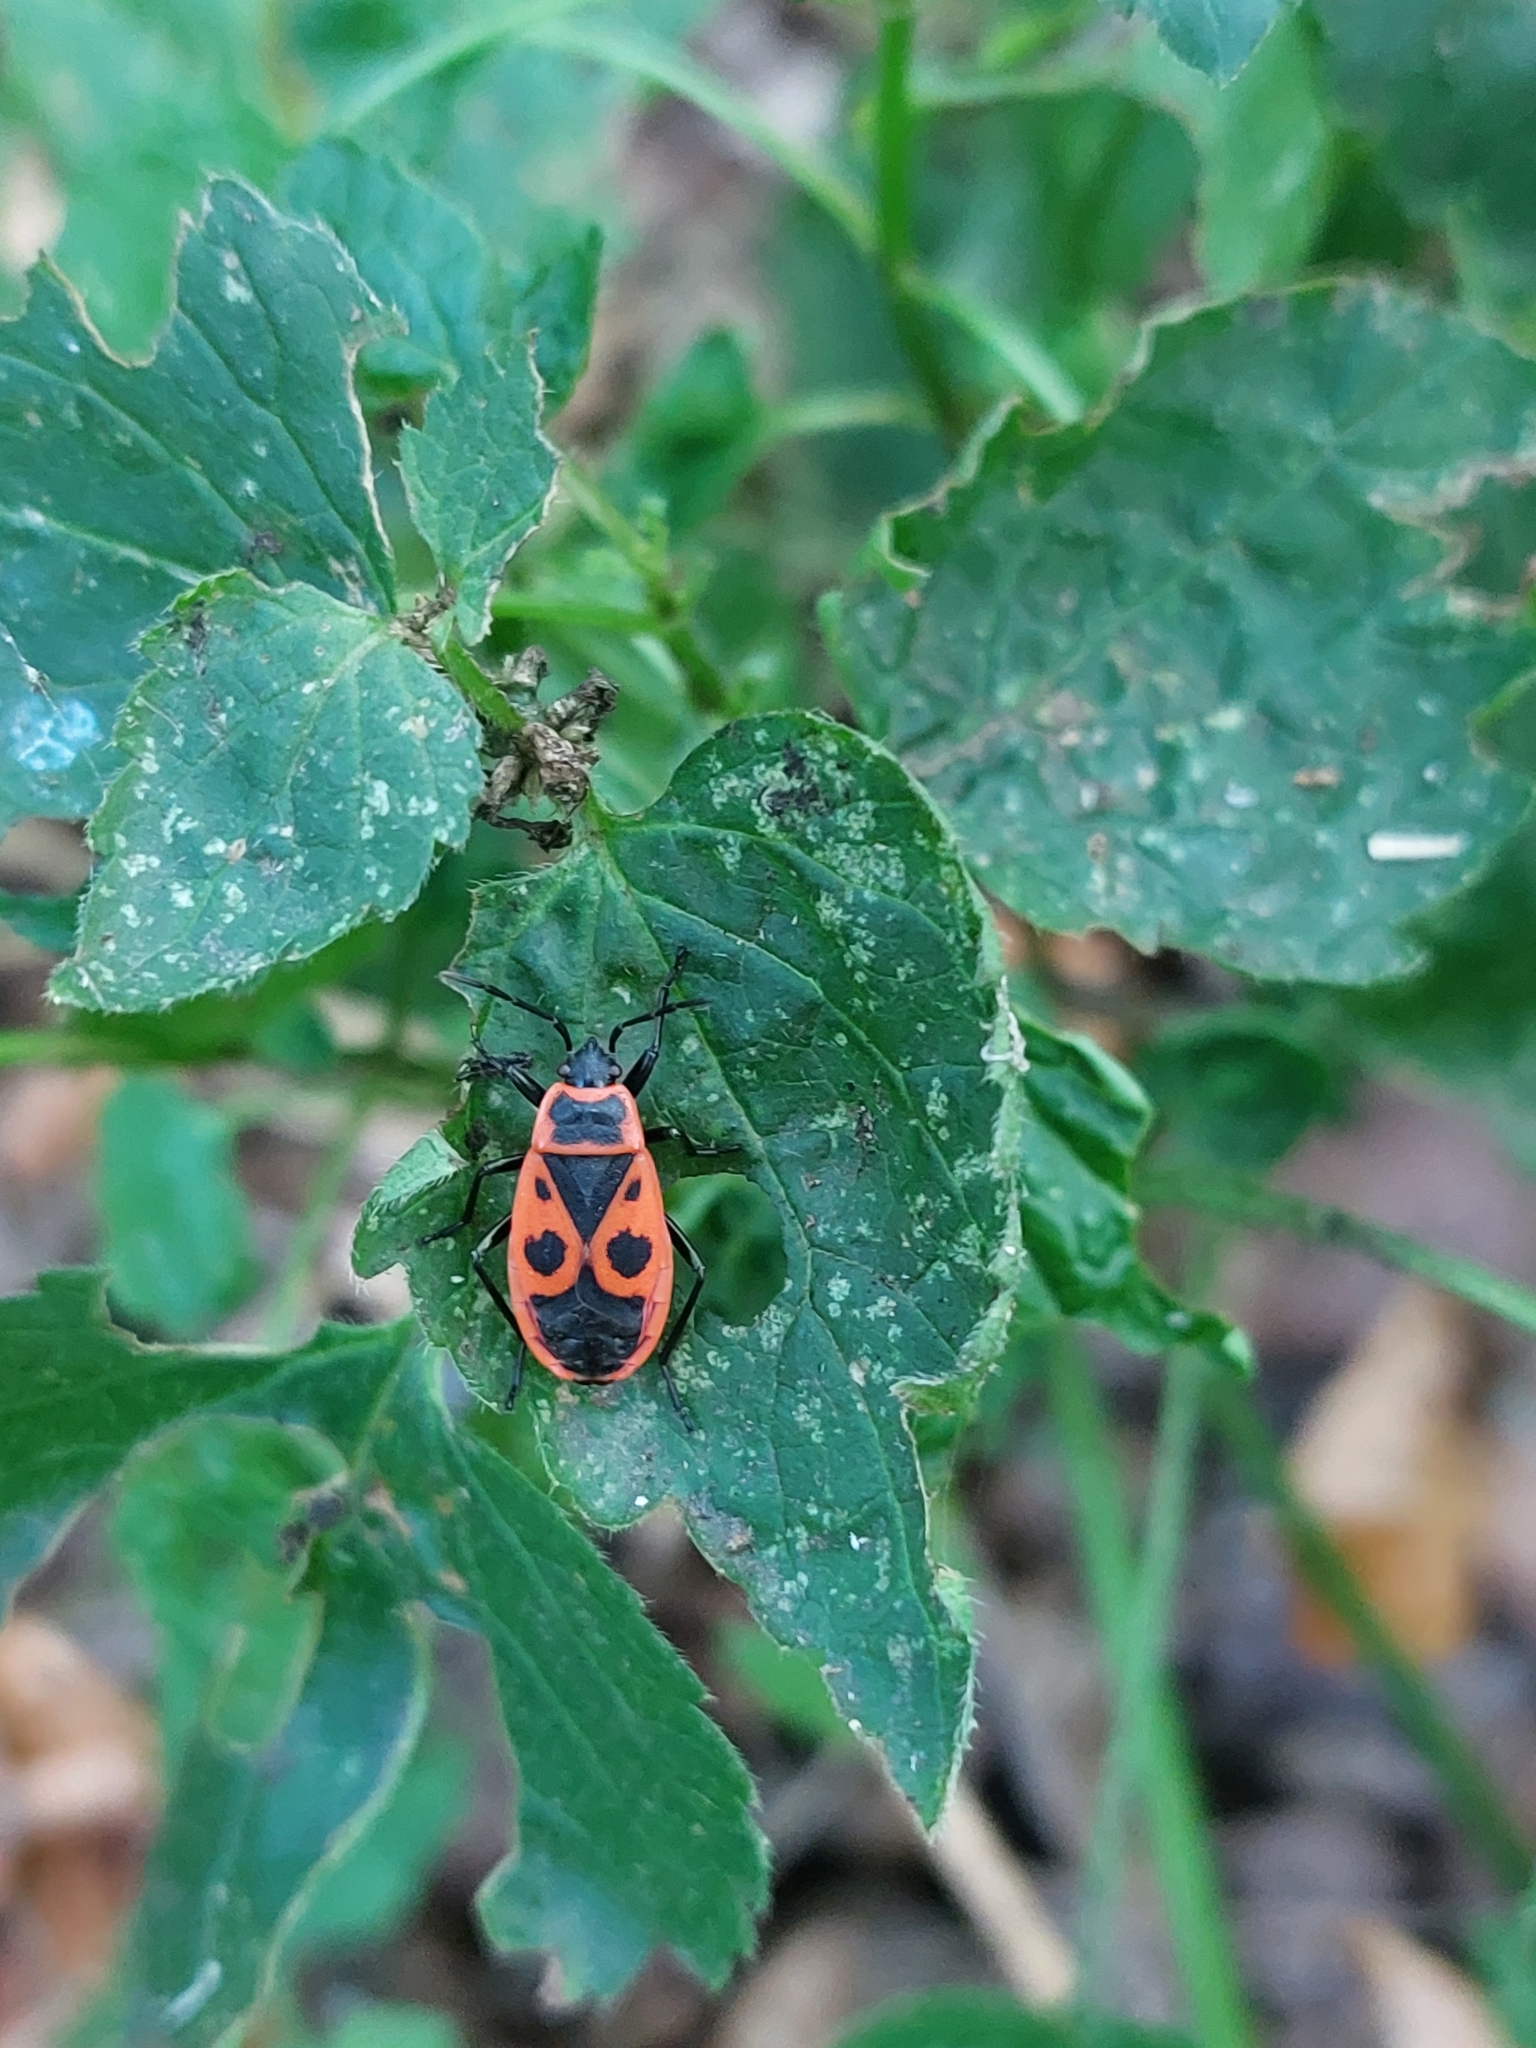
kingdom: Animalia
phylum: Arthropoda
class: Insecta
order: Hemiptera
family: Pyrrhocoridae
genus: Pyrrhocoris
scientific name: Pyrrhocoris apterus
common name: Firebug
